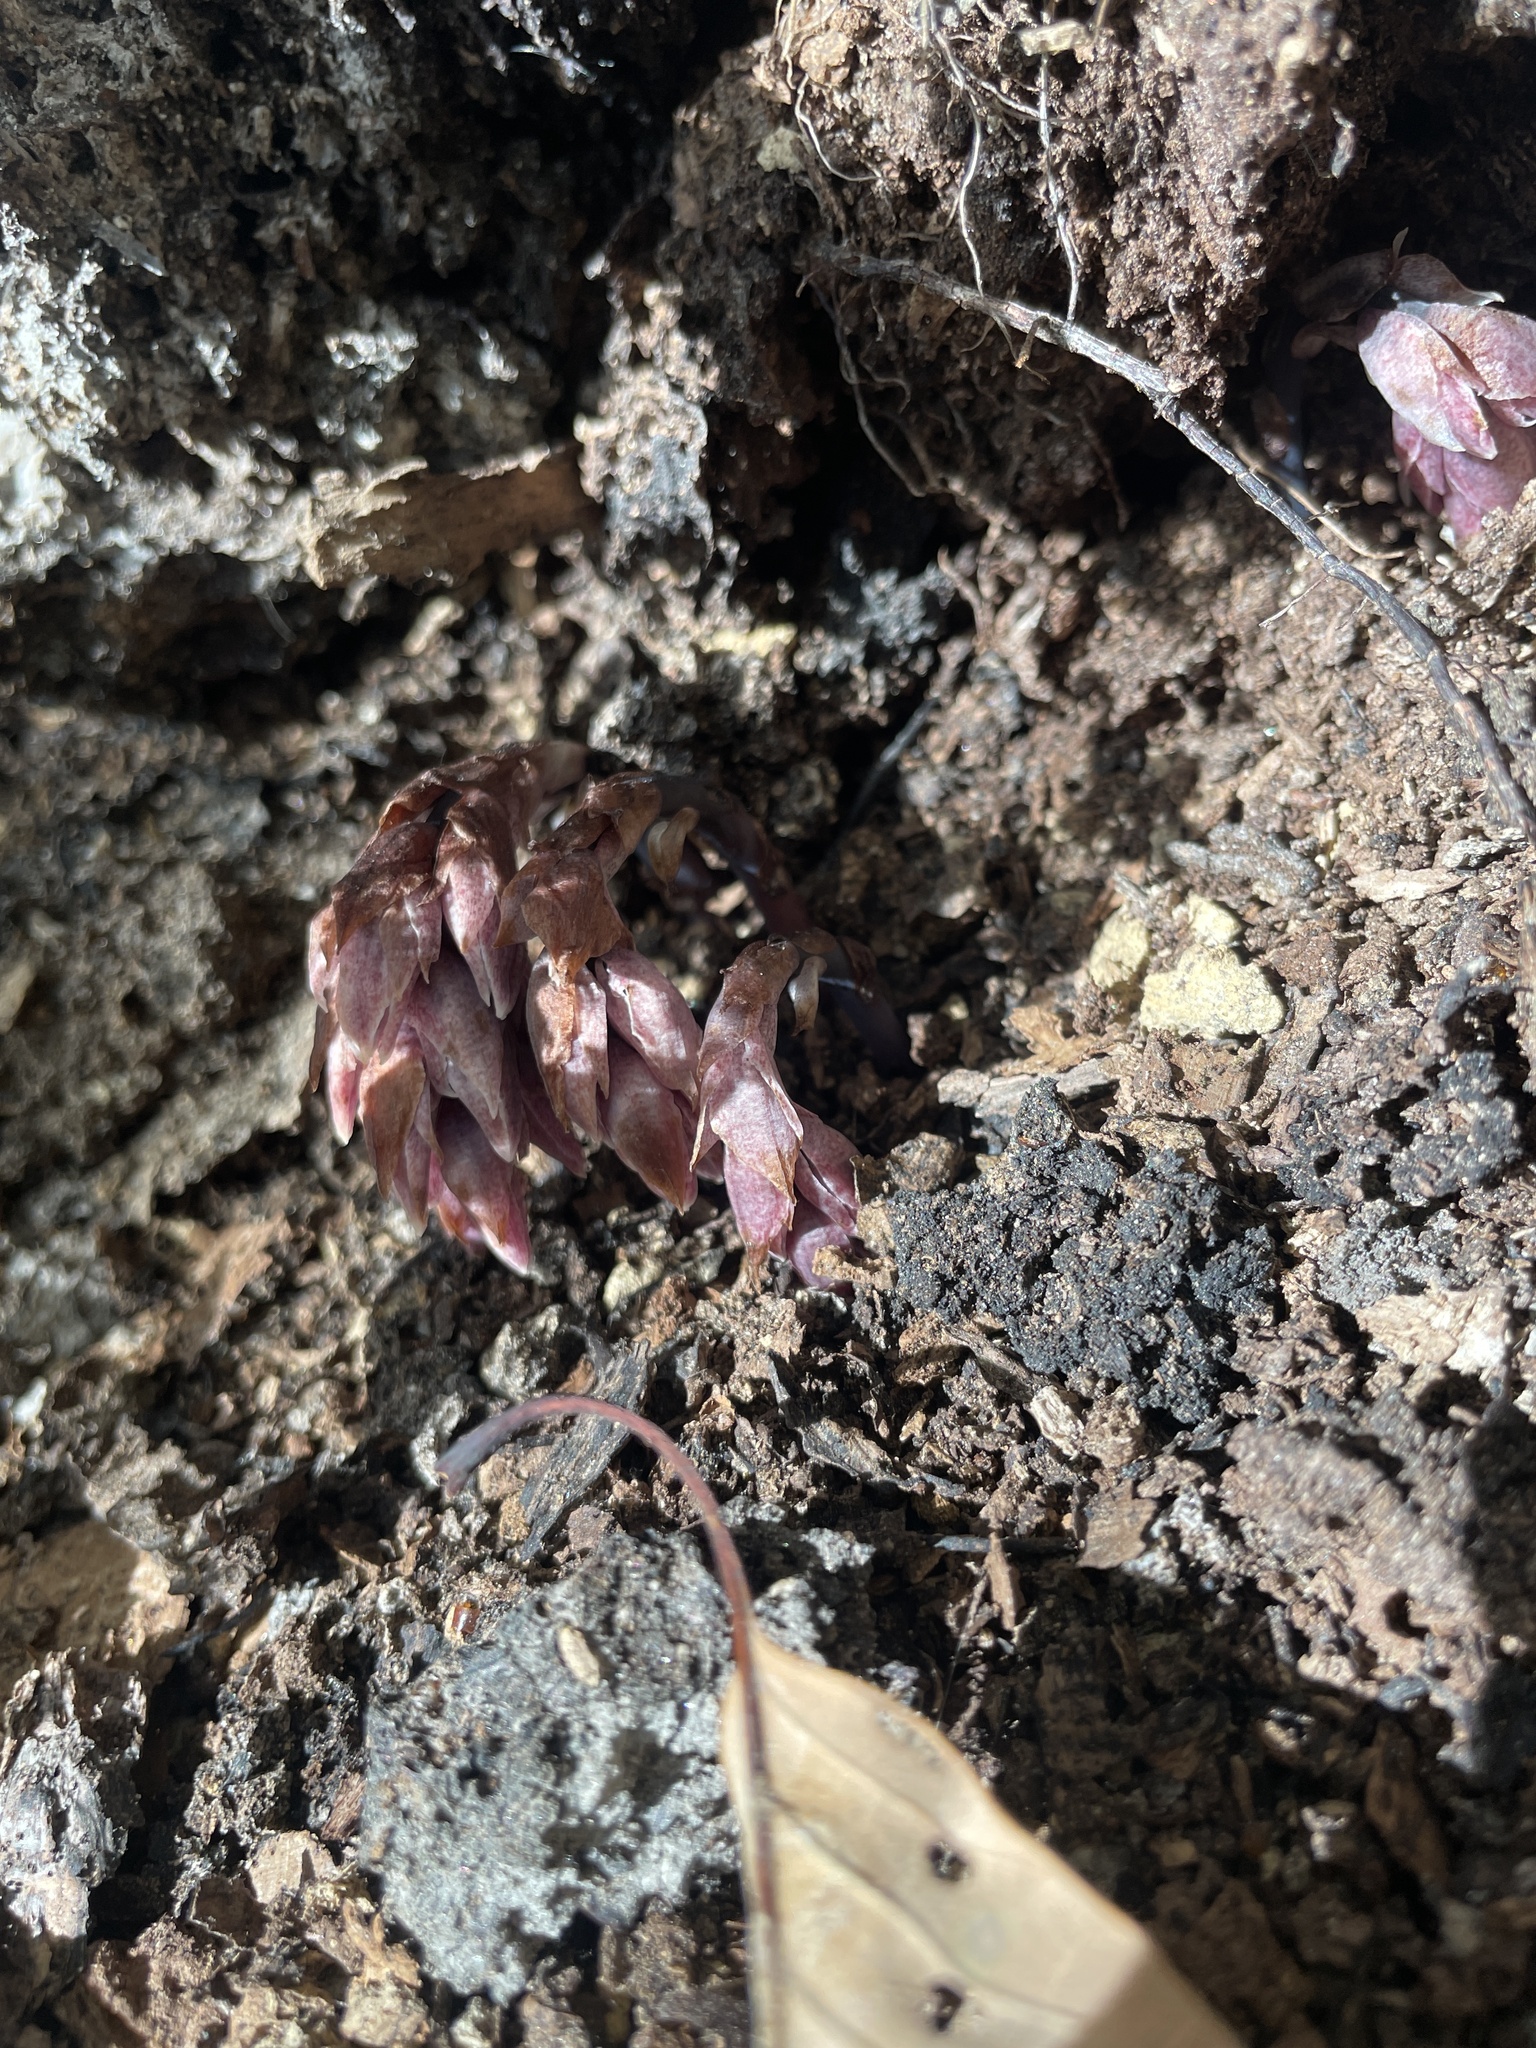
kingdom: Plantae
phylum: Tracheophyta
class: Magnoliopsida
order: Ericales
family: Ericaceae
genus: Monotropsis
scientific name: Monotropsis odorata
